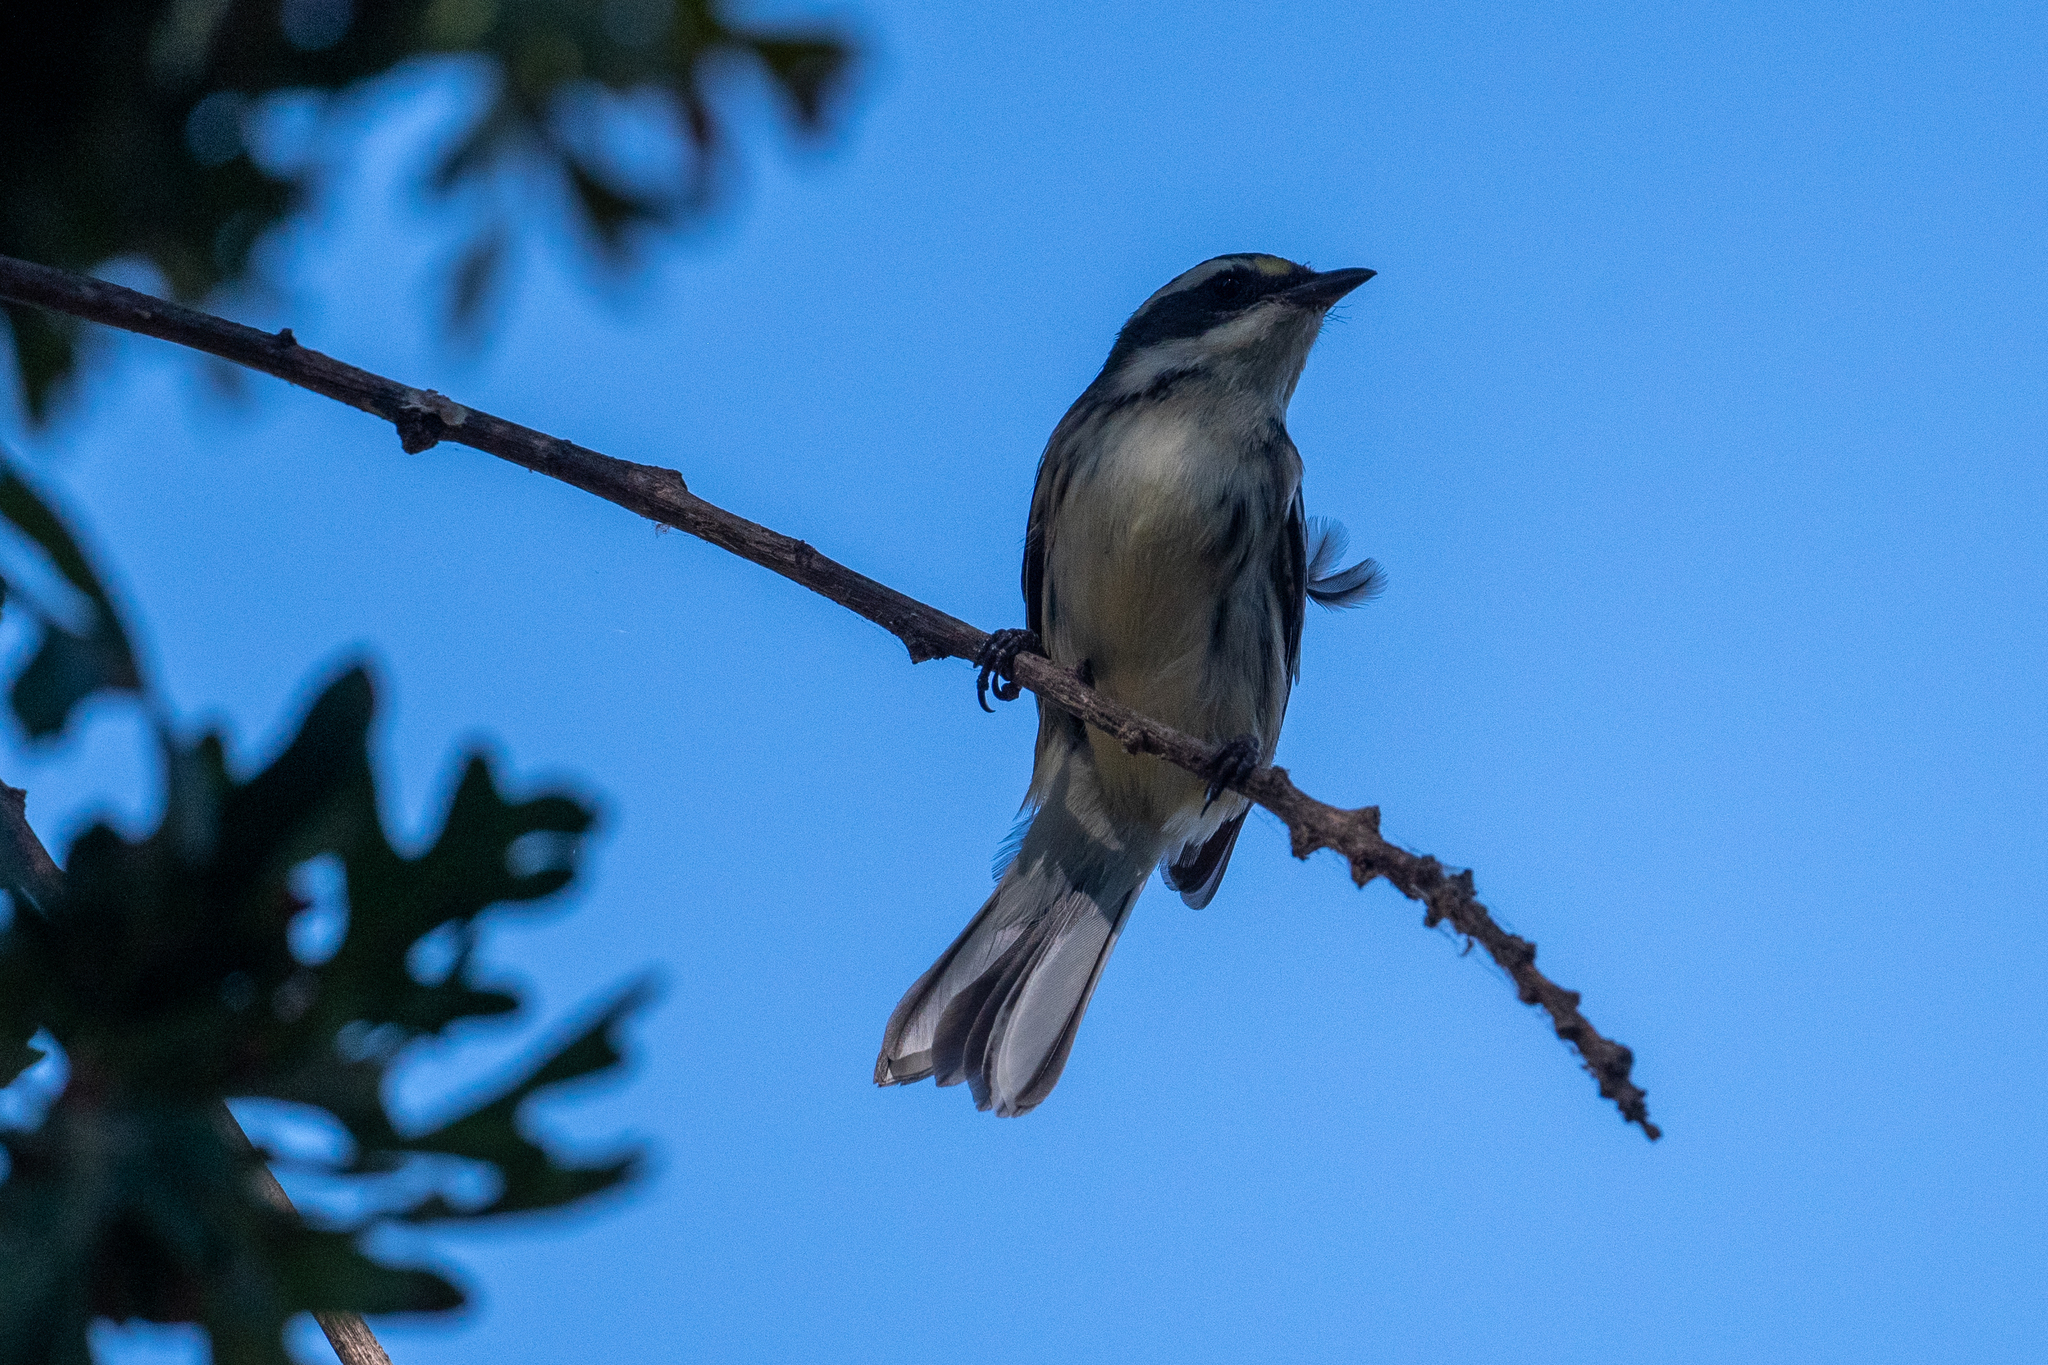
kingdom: Animalia
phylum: Chordata
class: Aves
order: Passeriformes
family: Parulidae
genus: Setophaga
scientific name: Setophaga nigrescens
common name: Black-throated gray warbler
